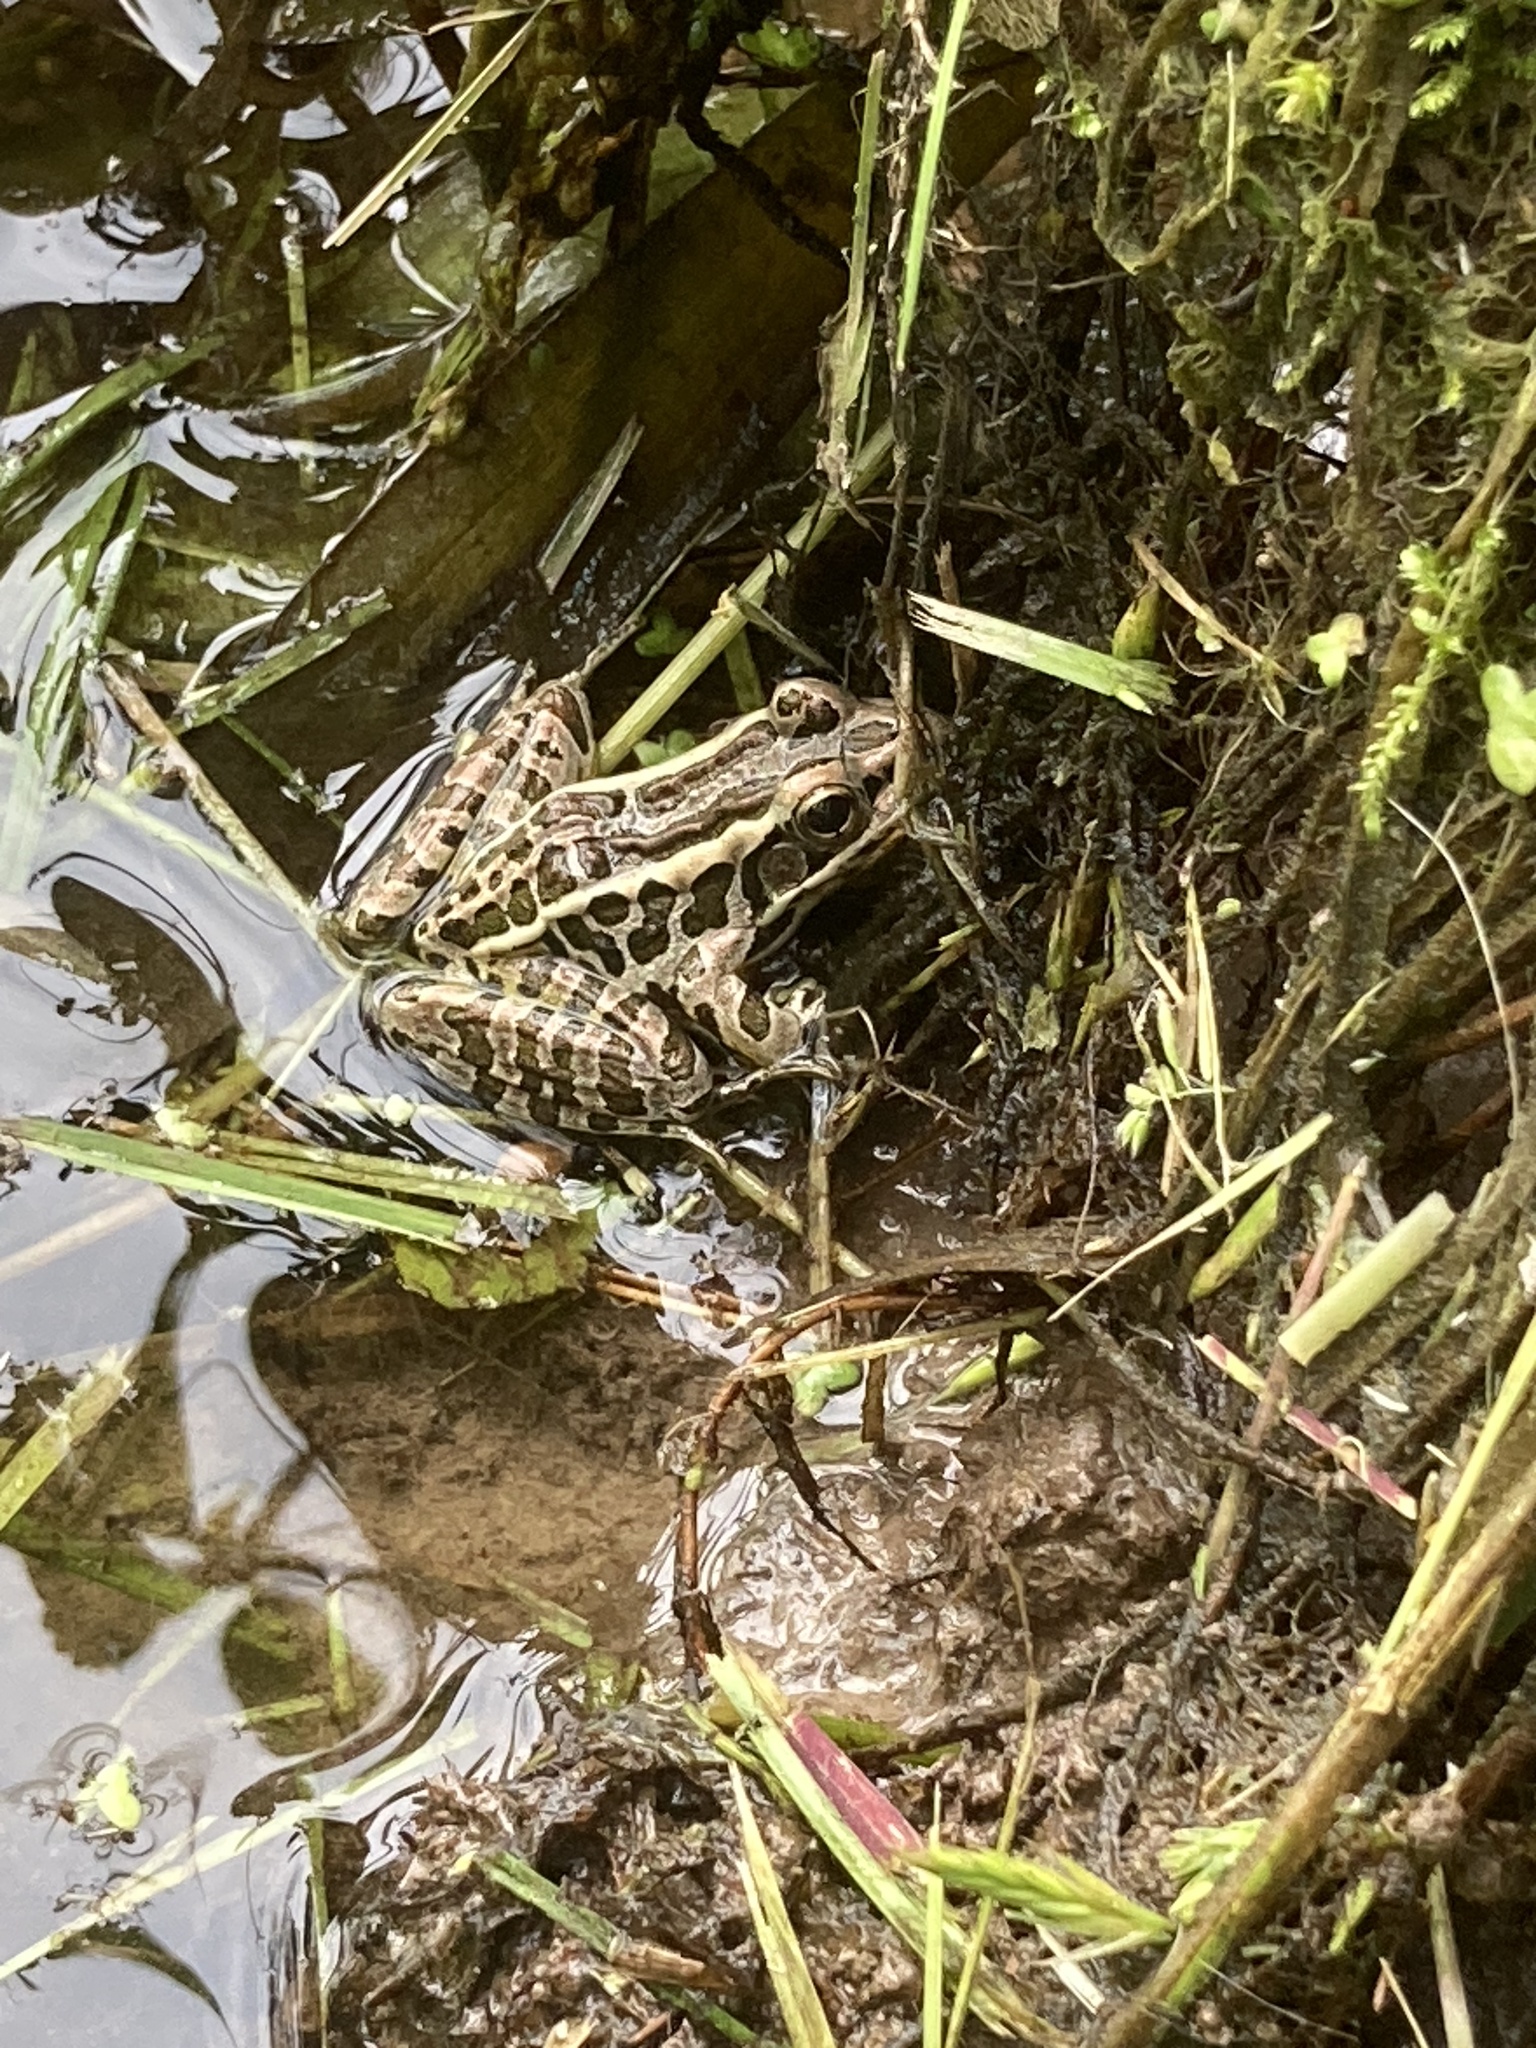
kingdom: Animalia
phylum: Chordata
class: Amphibia
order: Anura
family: Ranidae
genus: Lithobates
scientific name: Lithobates palustris
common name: Pickerel frog
